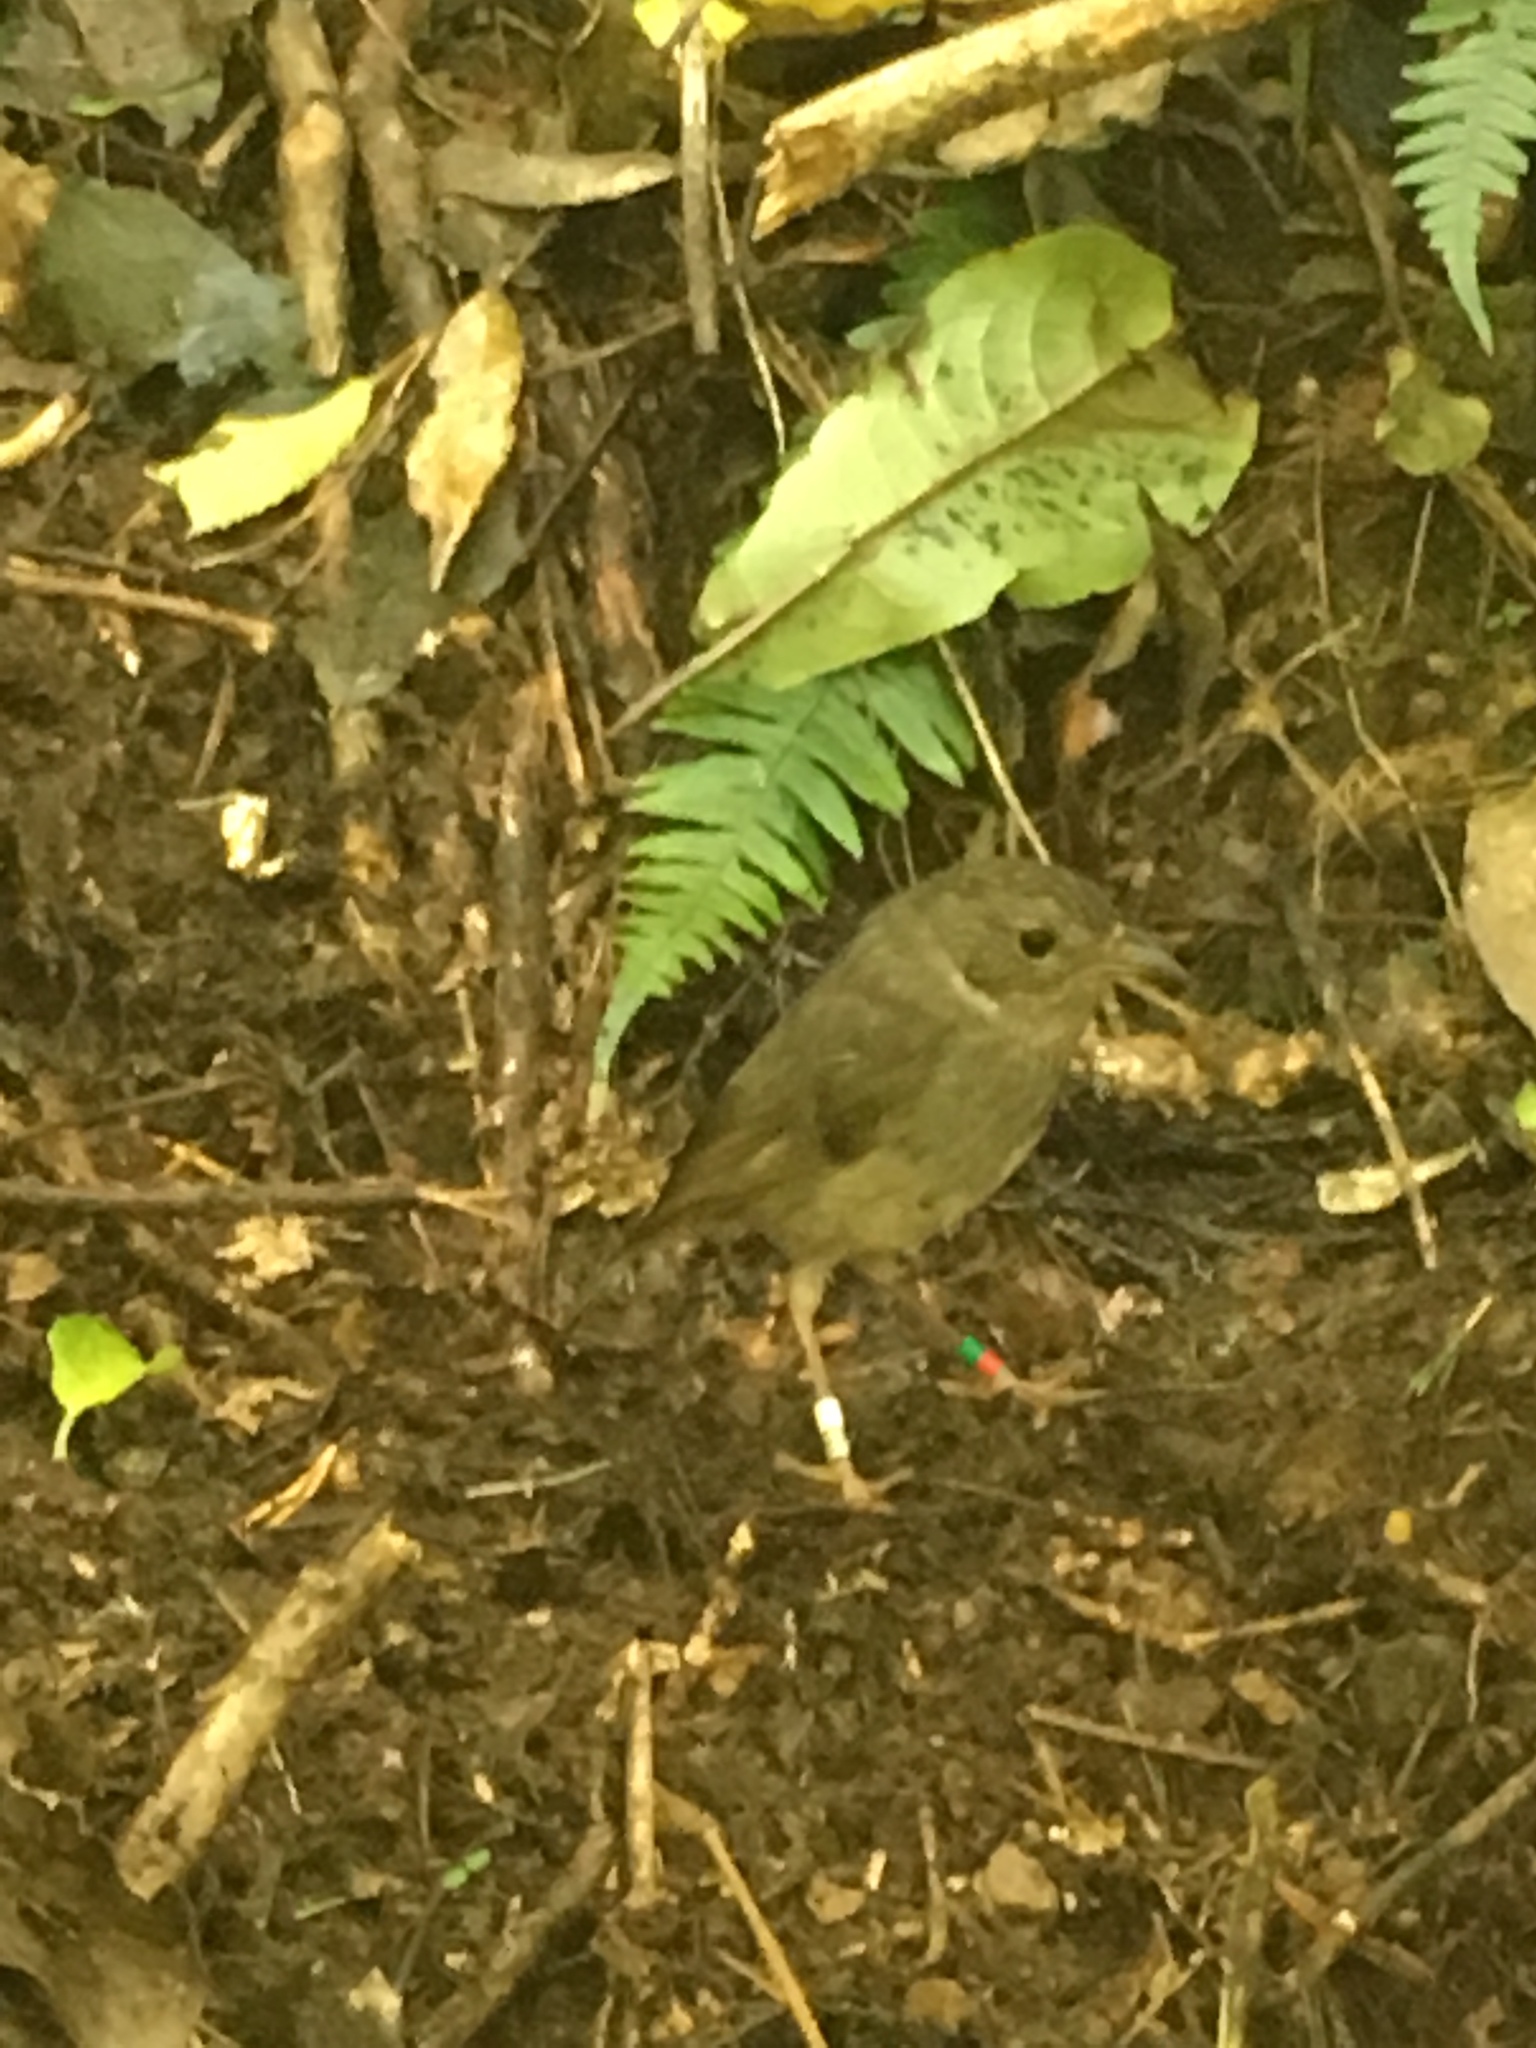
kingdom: Animalia
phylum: Chordata
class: Aves
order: Passeriformes
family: Petroicidae
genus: Petroica
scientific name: Petroica australis
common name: New zealand robin
